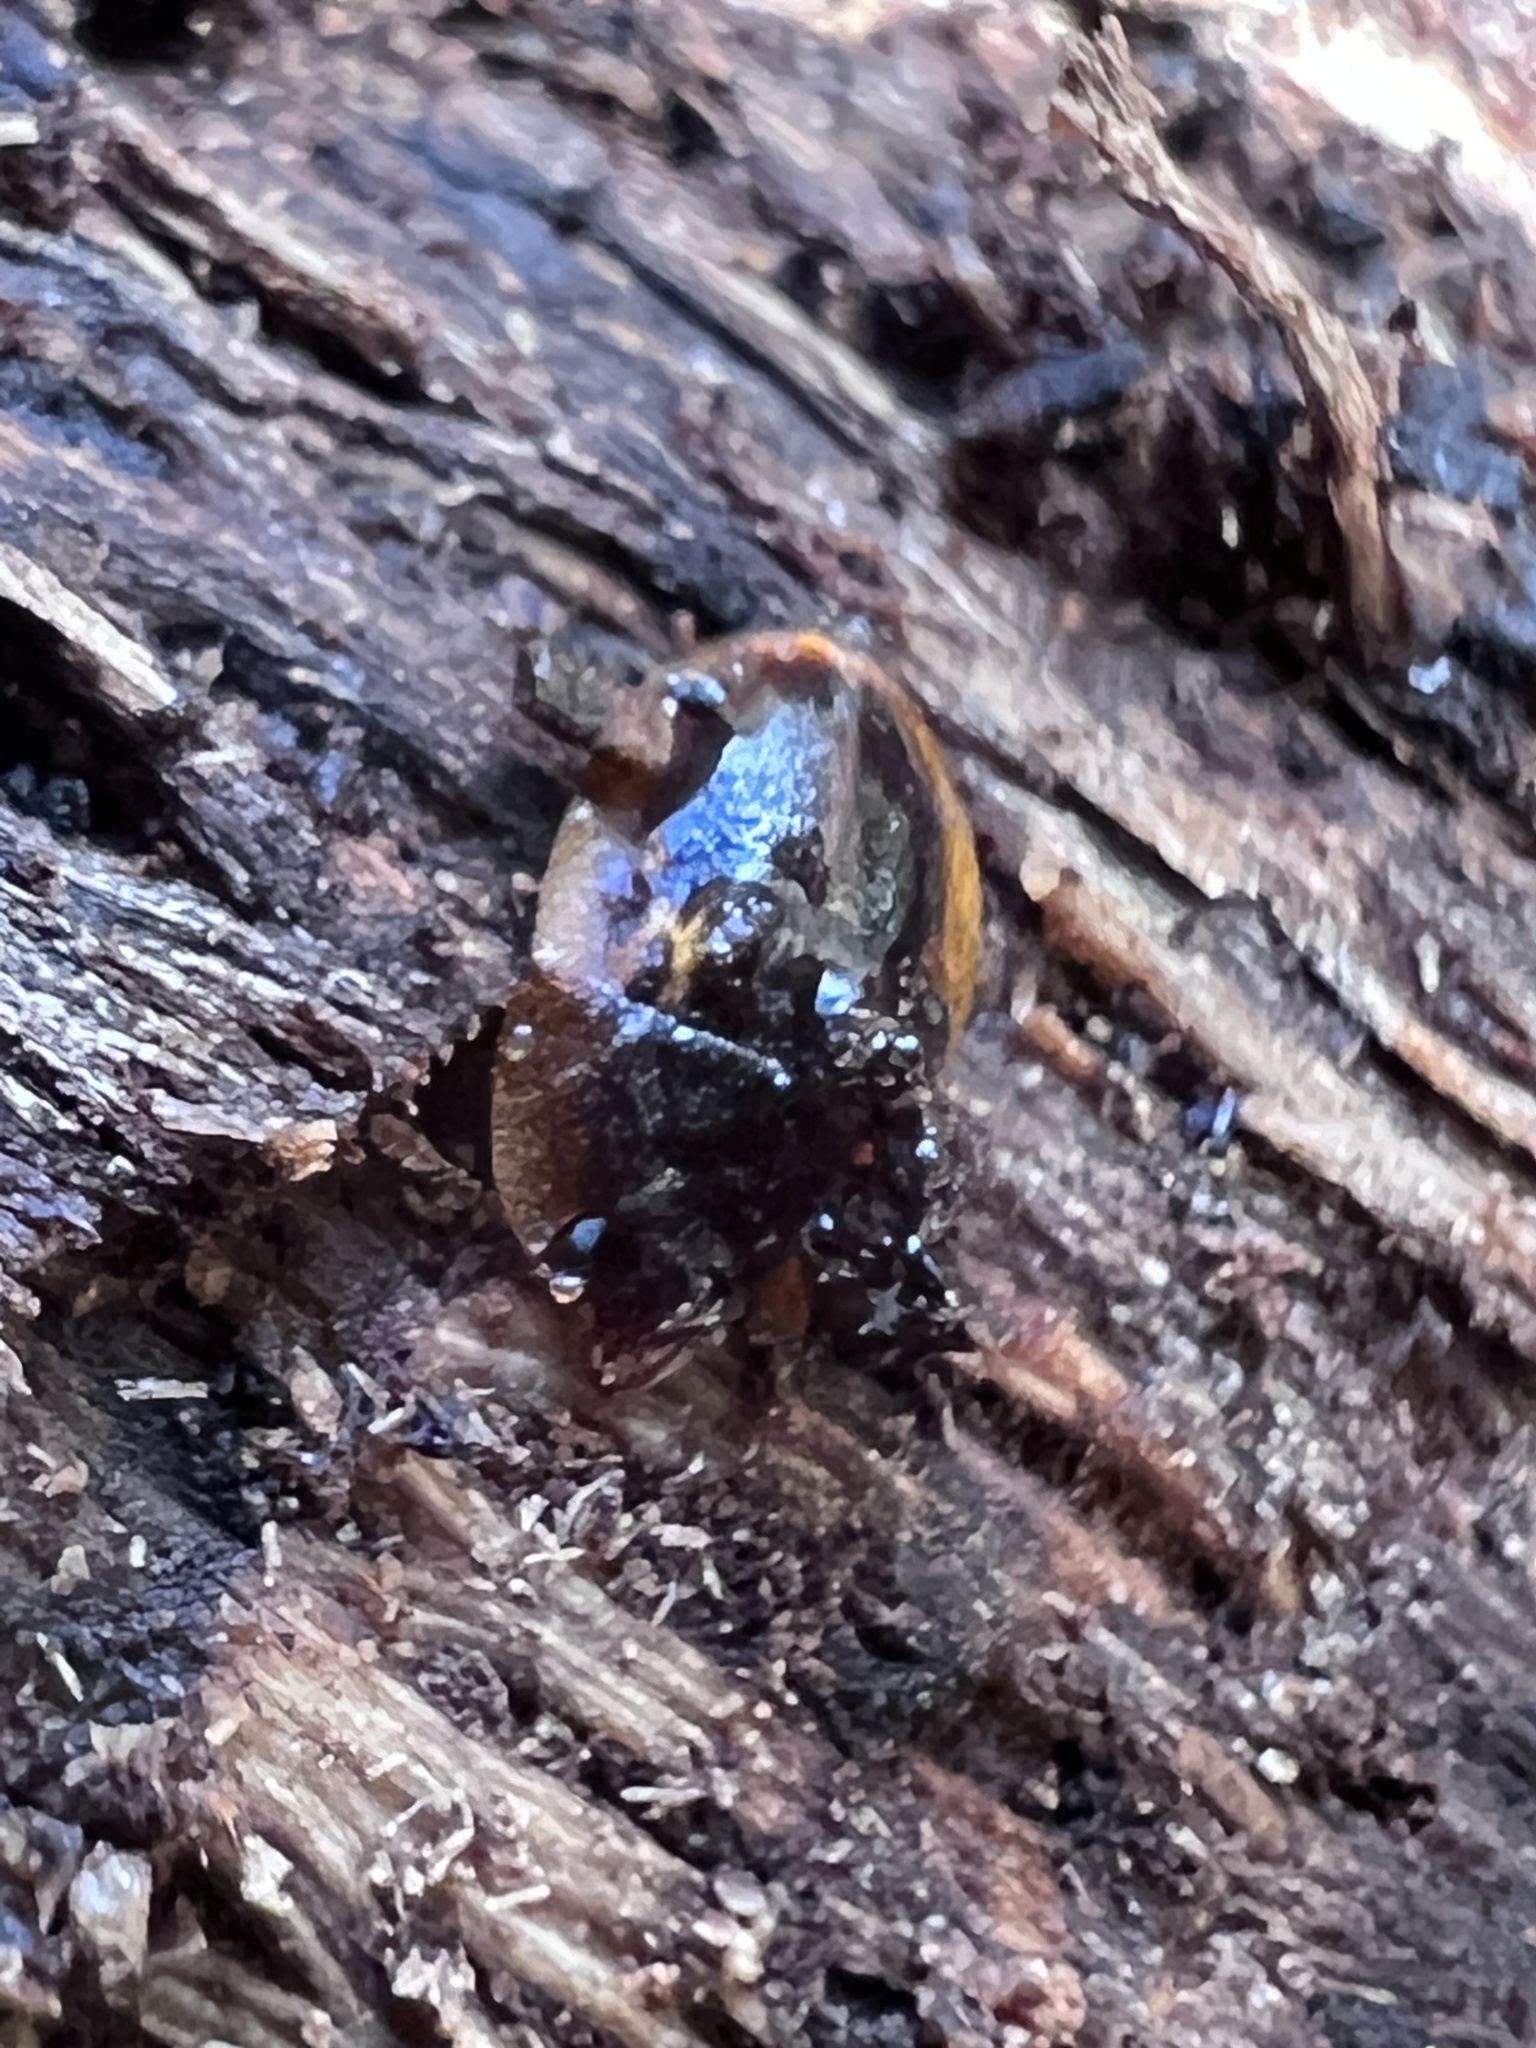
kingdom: Animalia
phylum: Arthropoda
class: Insecta
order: Coleoptera
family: Nitidulidae
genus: Prometopia
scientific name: Prometopia sexmaculata
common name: Six-spotted sap-feeding beetle
